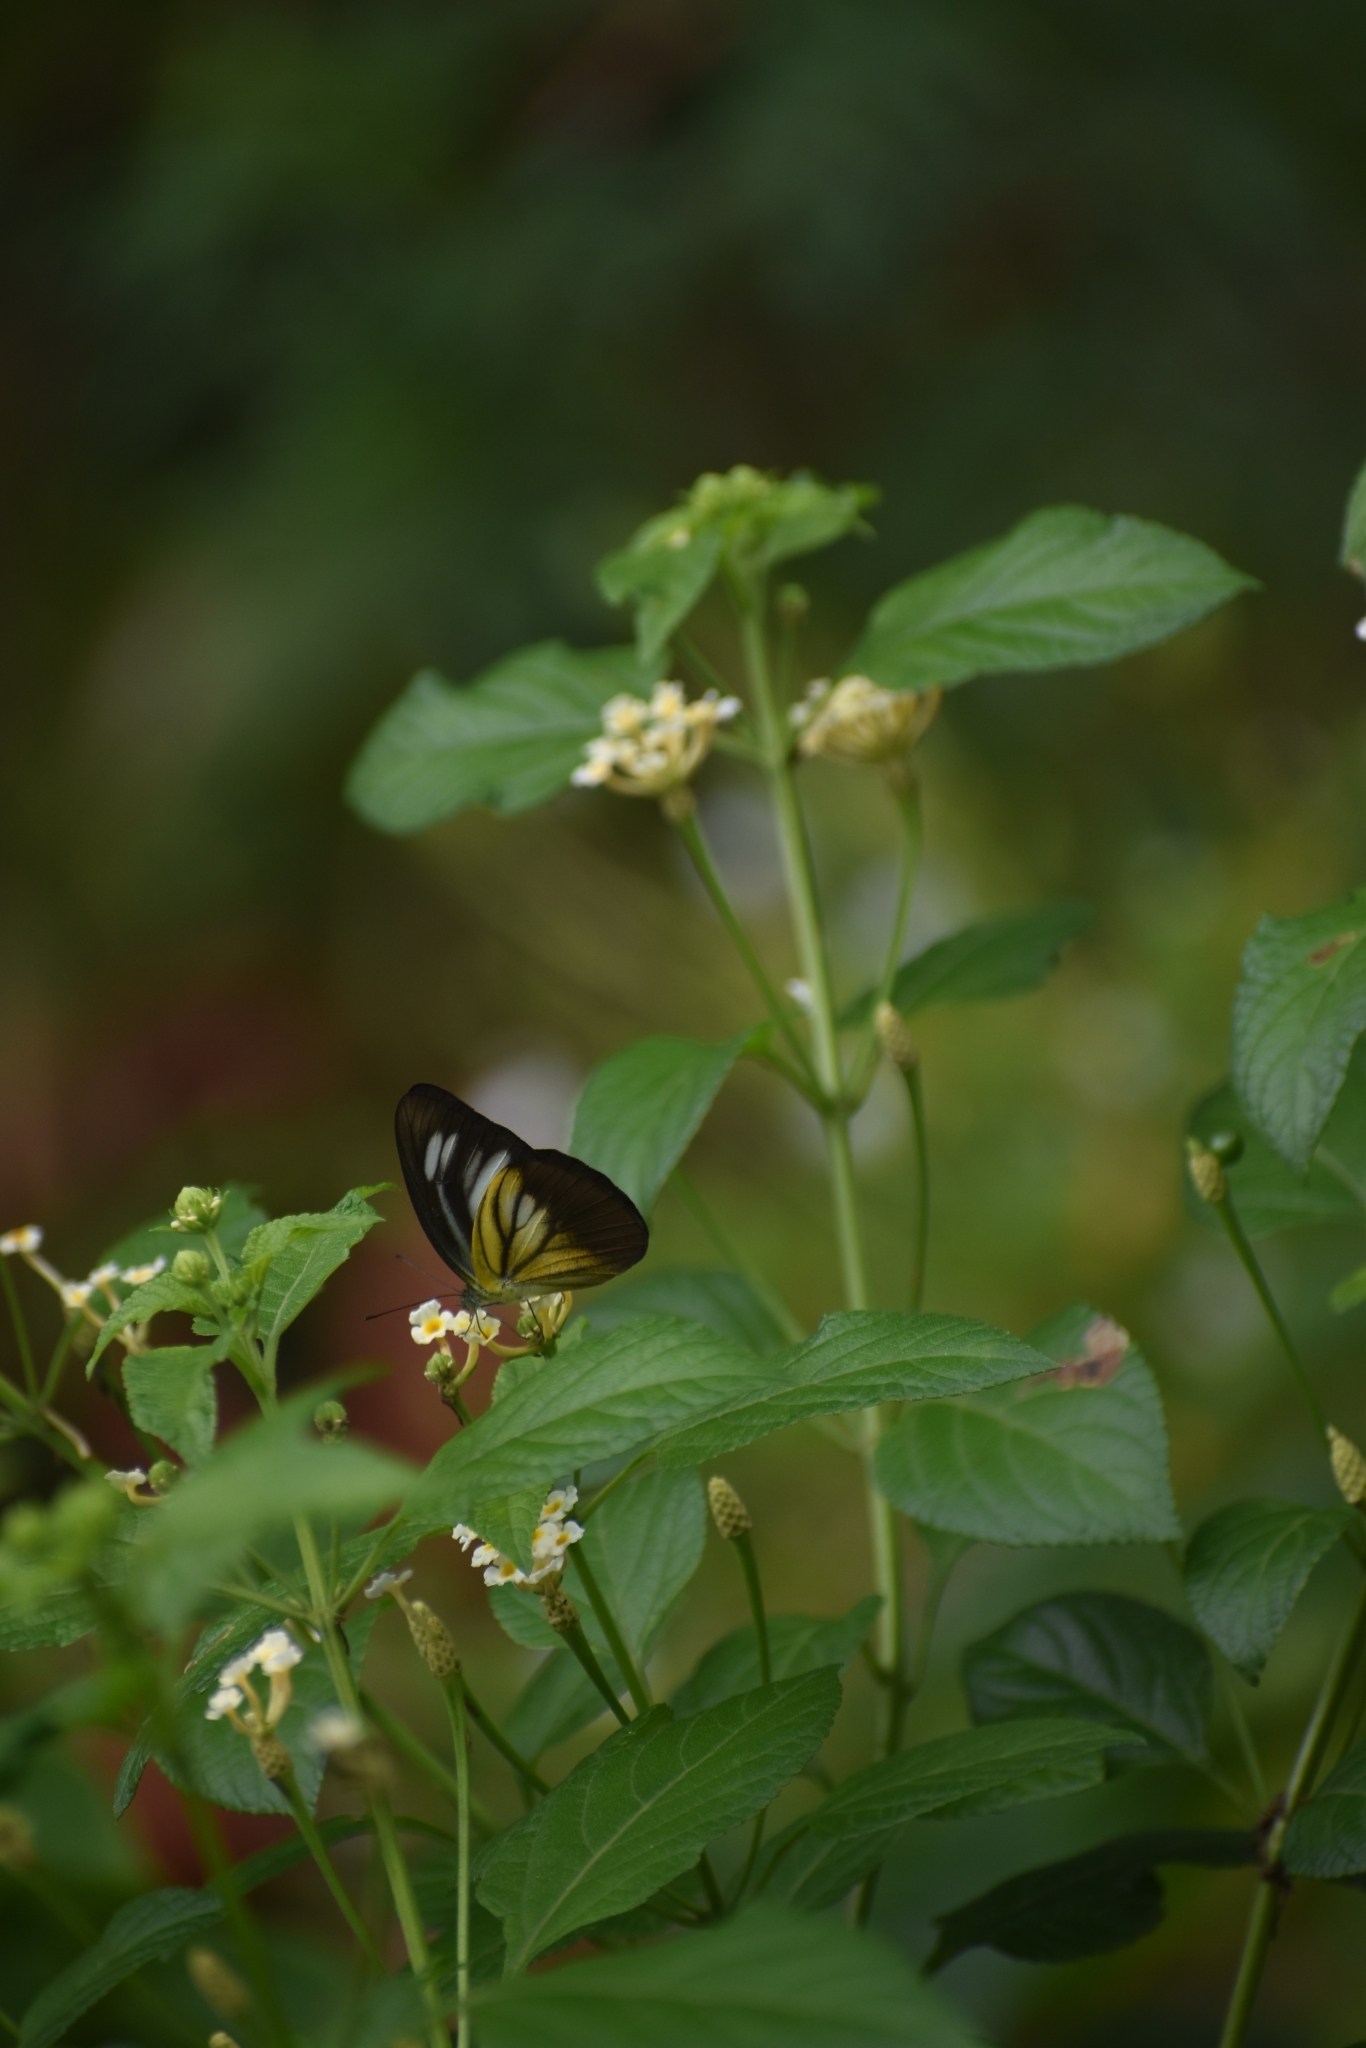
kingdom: Animalia
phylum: Arthropoda
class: Insecta
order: Lepidoptera
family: Pieridae
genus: Appias
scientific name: Appias lyncida
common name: Chocolate albatross
